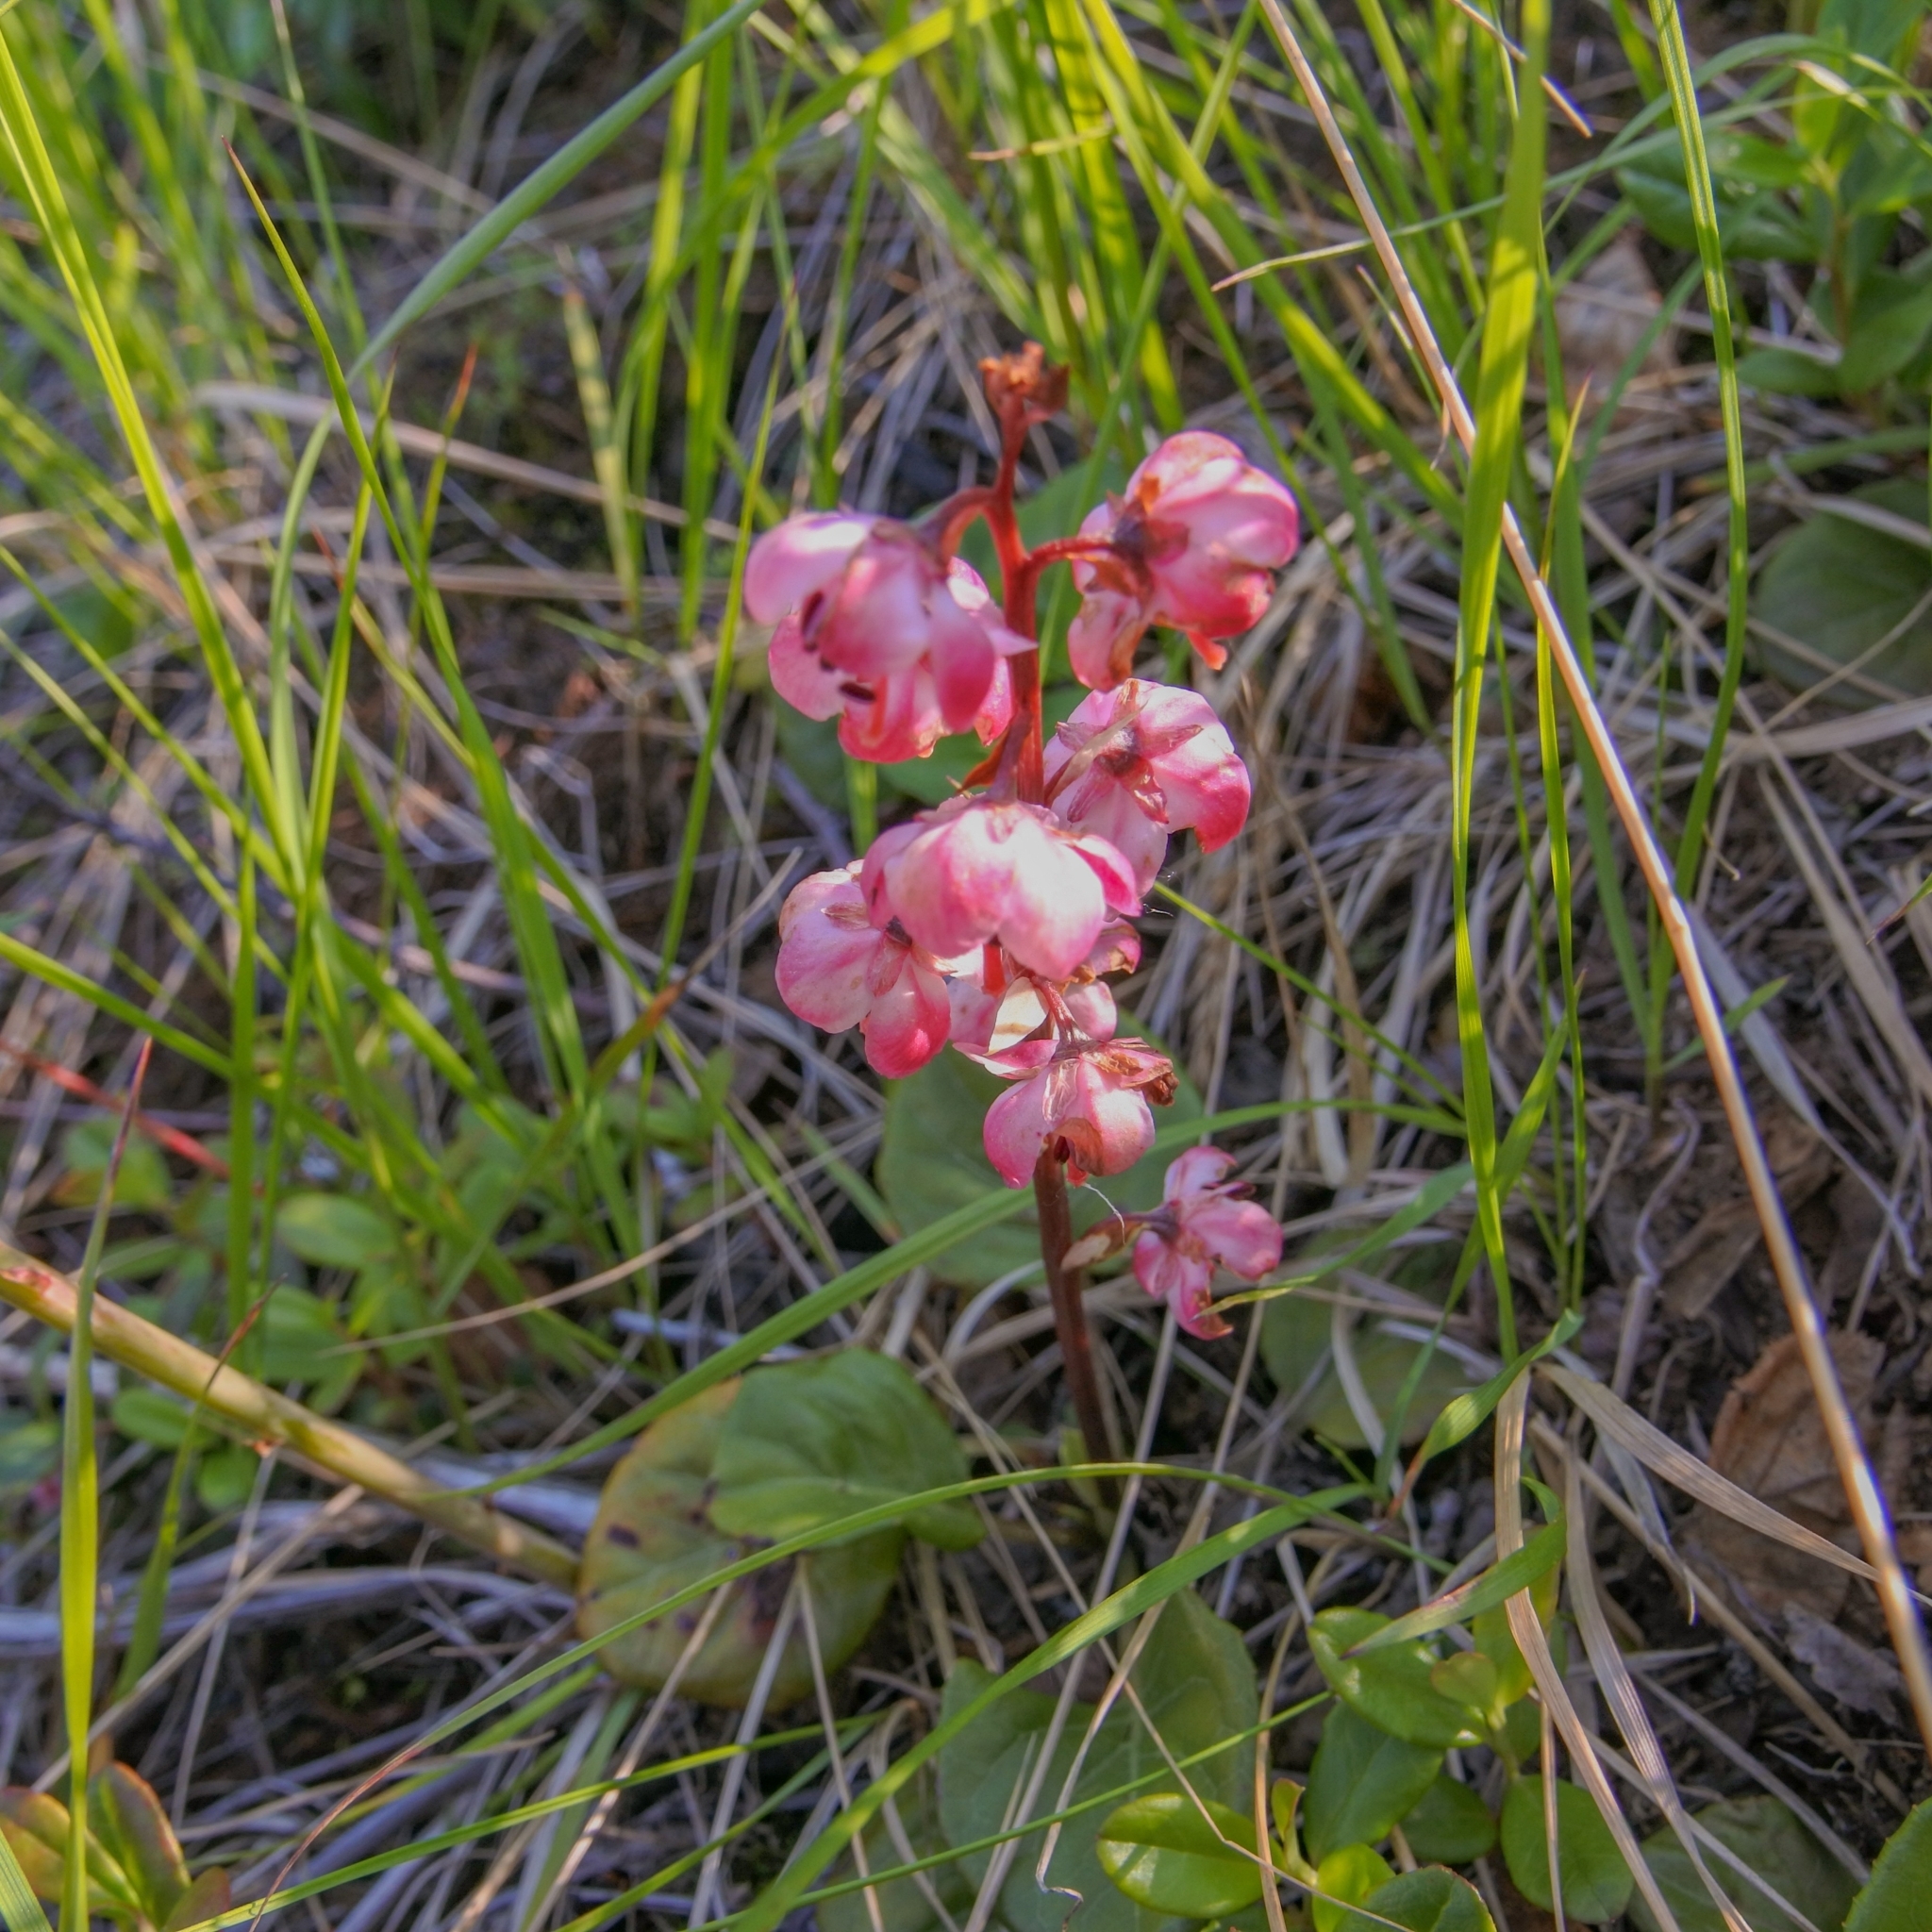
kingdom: Plantae
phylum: Tracheophyta
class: Magnoliopsida
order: Ericales
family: Ericaceae
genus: Pyrola
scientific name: Pyrola asarifolia
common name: Bog wintergreen
